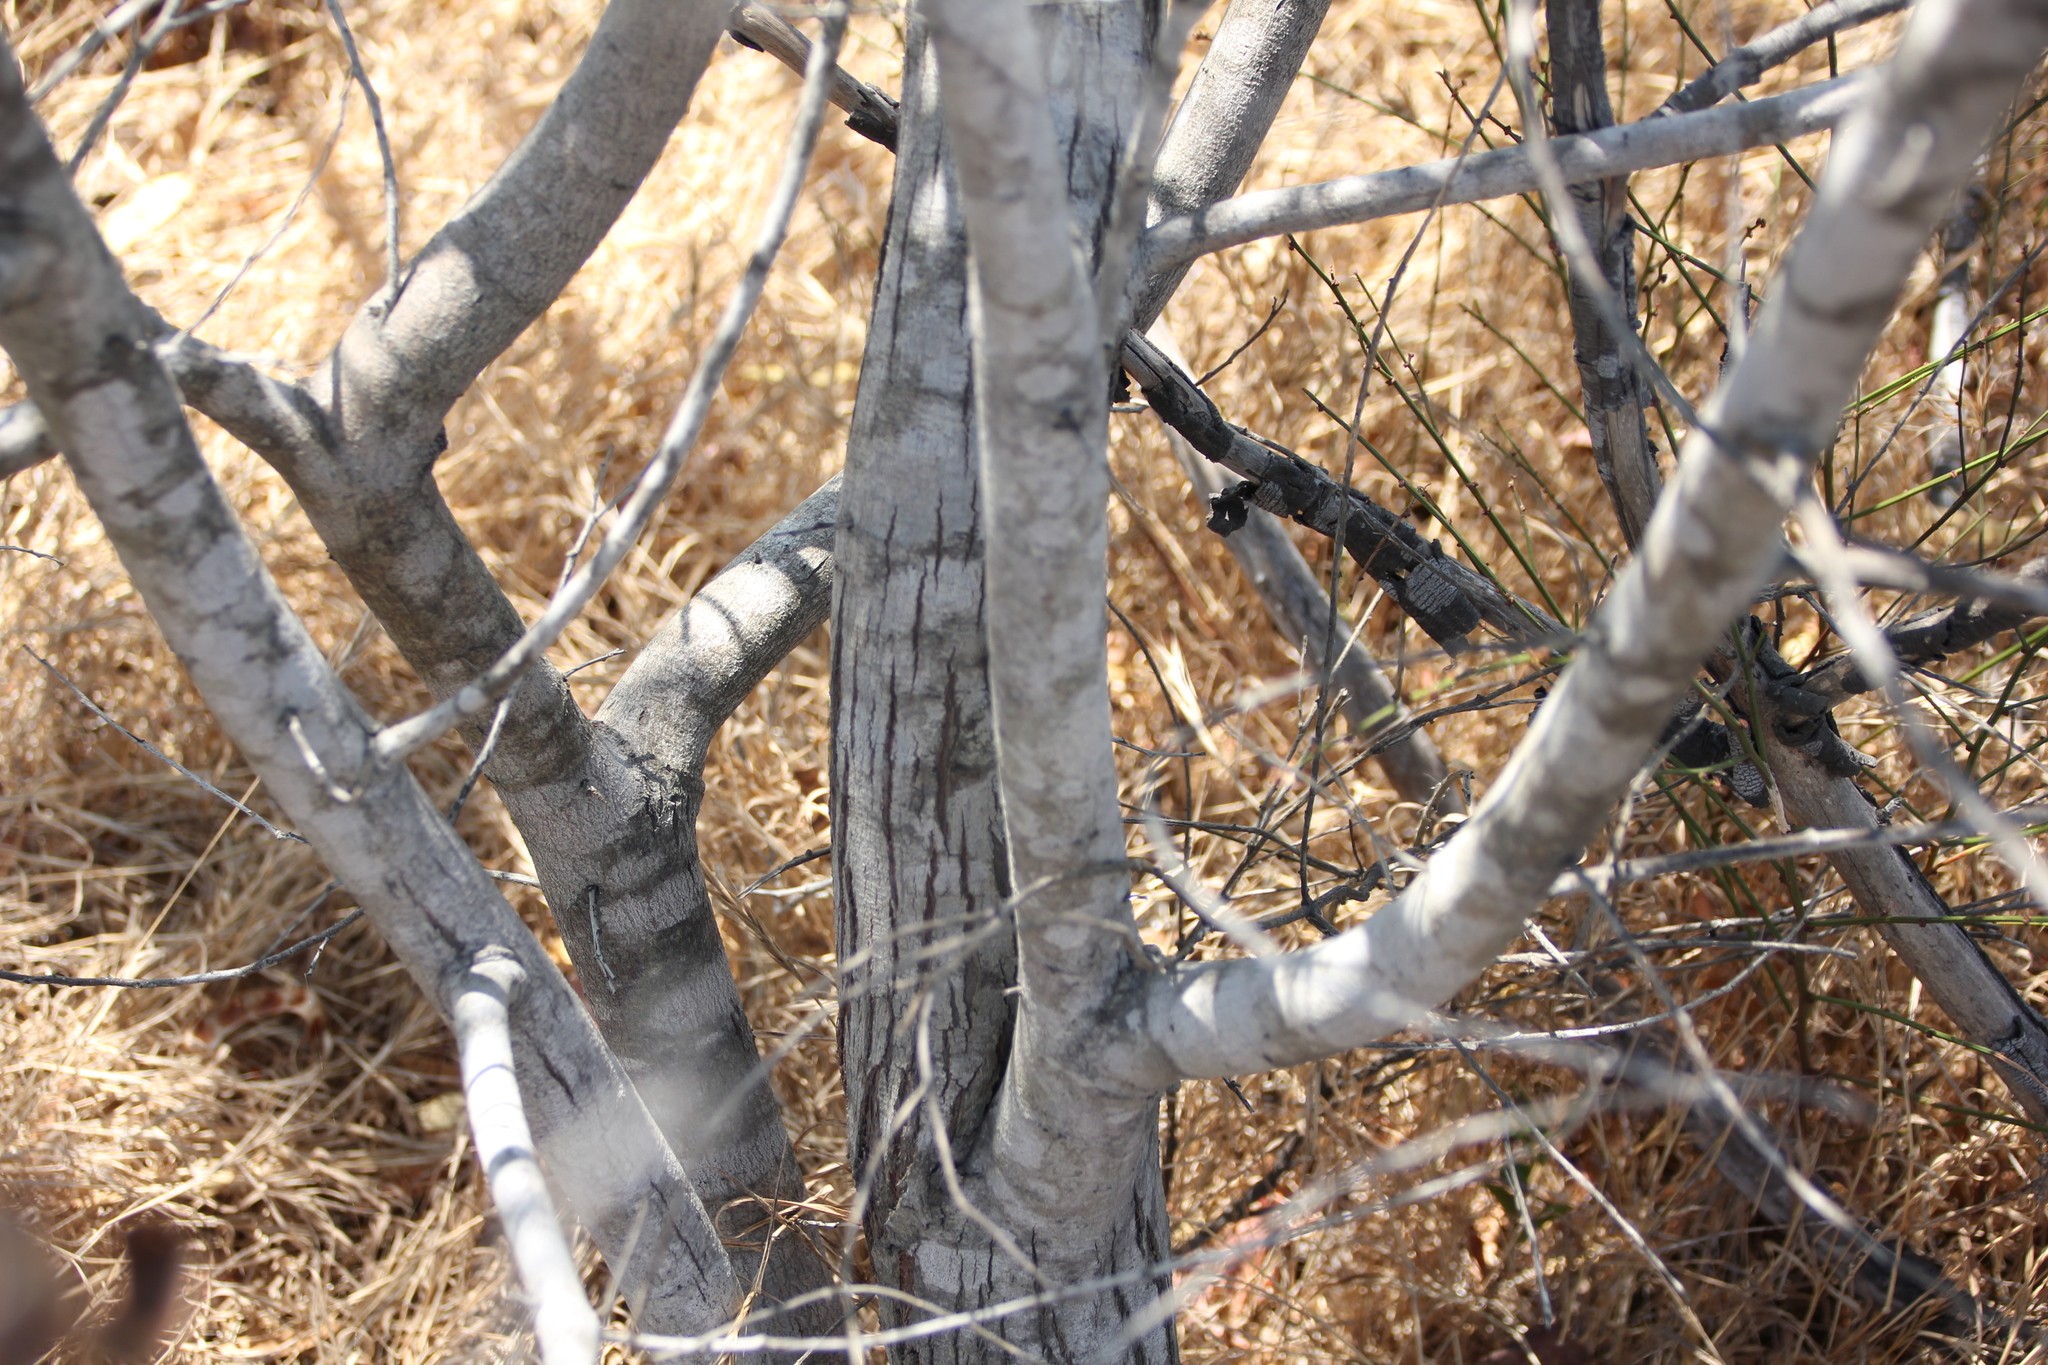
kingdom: Plantae
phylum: Tracheophyta
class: Magnoliopsida
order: Fabales
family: Fabaceae
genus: Acacia
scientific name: Acacia cyclops
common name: Coastal wattle
